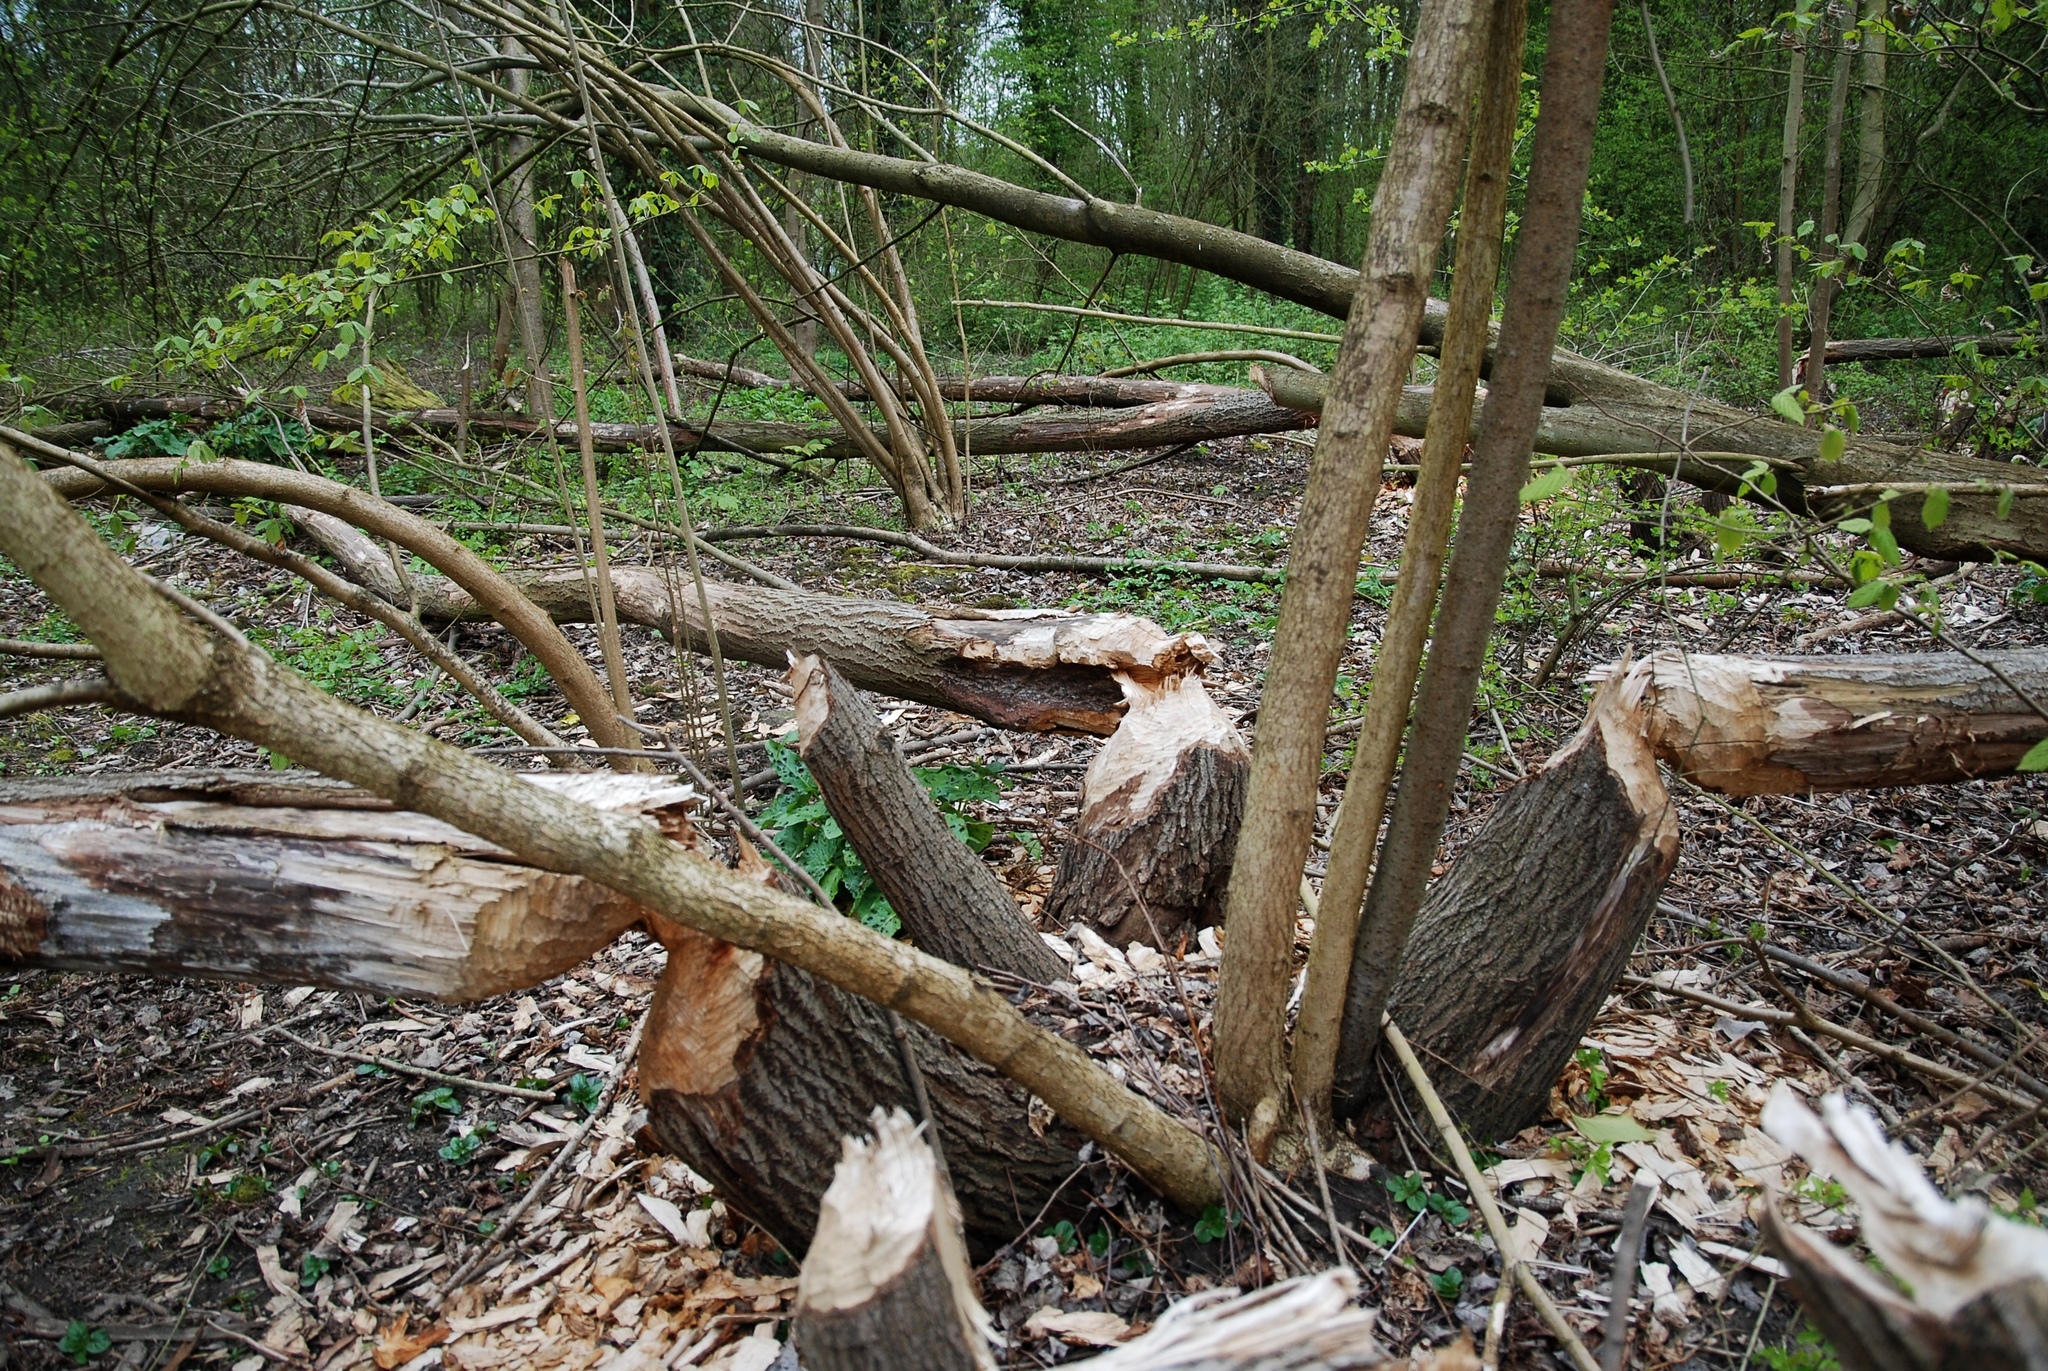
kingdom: Animalia
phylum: Chordata
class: Mammalia
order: Rodentia
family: Castoridae
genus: Castor
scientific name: Castor fiber
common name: Eurasian beaver
